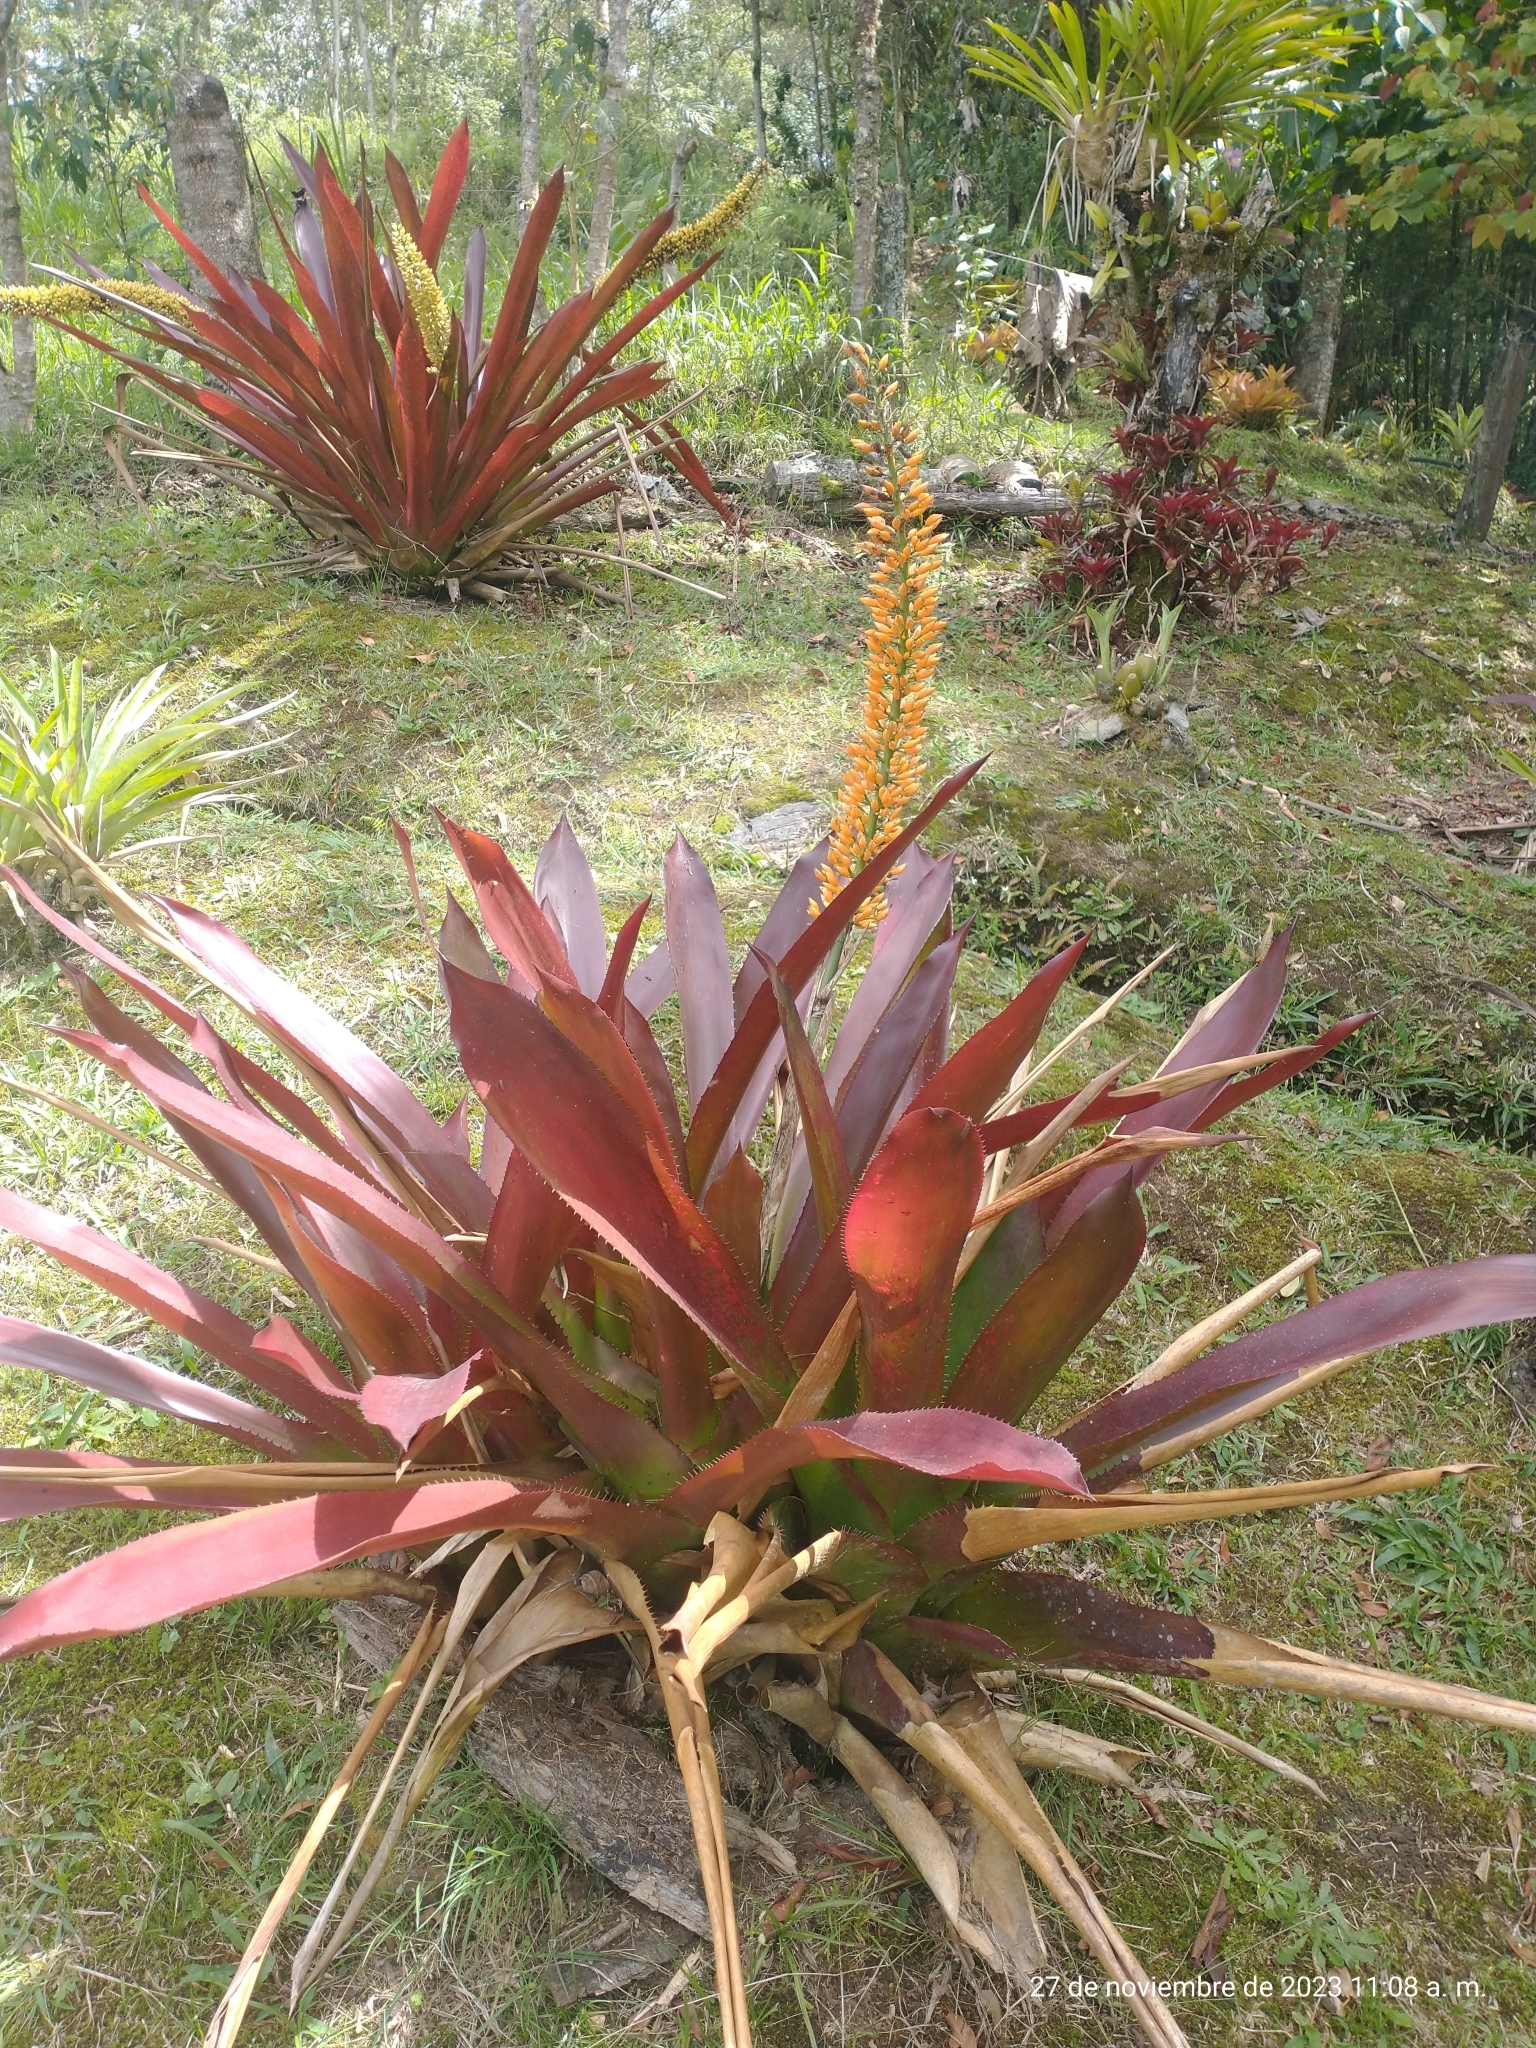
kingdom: Plantae
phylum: Tracheophyta
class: Liliopsida
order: Poales
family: Bromeliaceae
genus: Aechmea
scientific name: Aechmea latifolia
